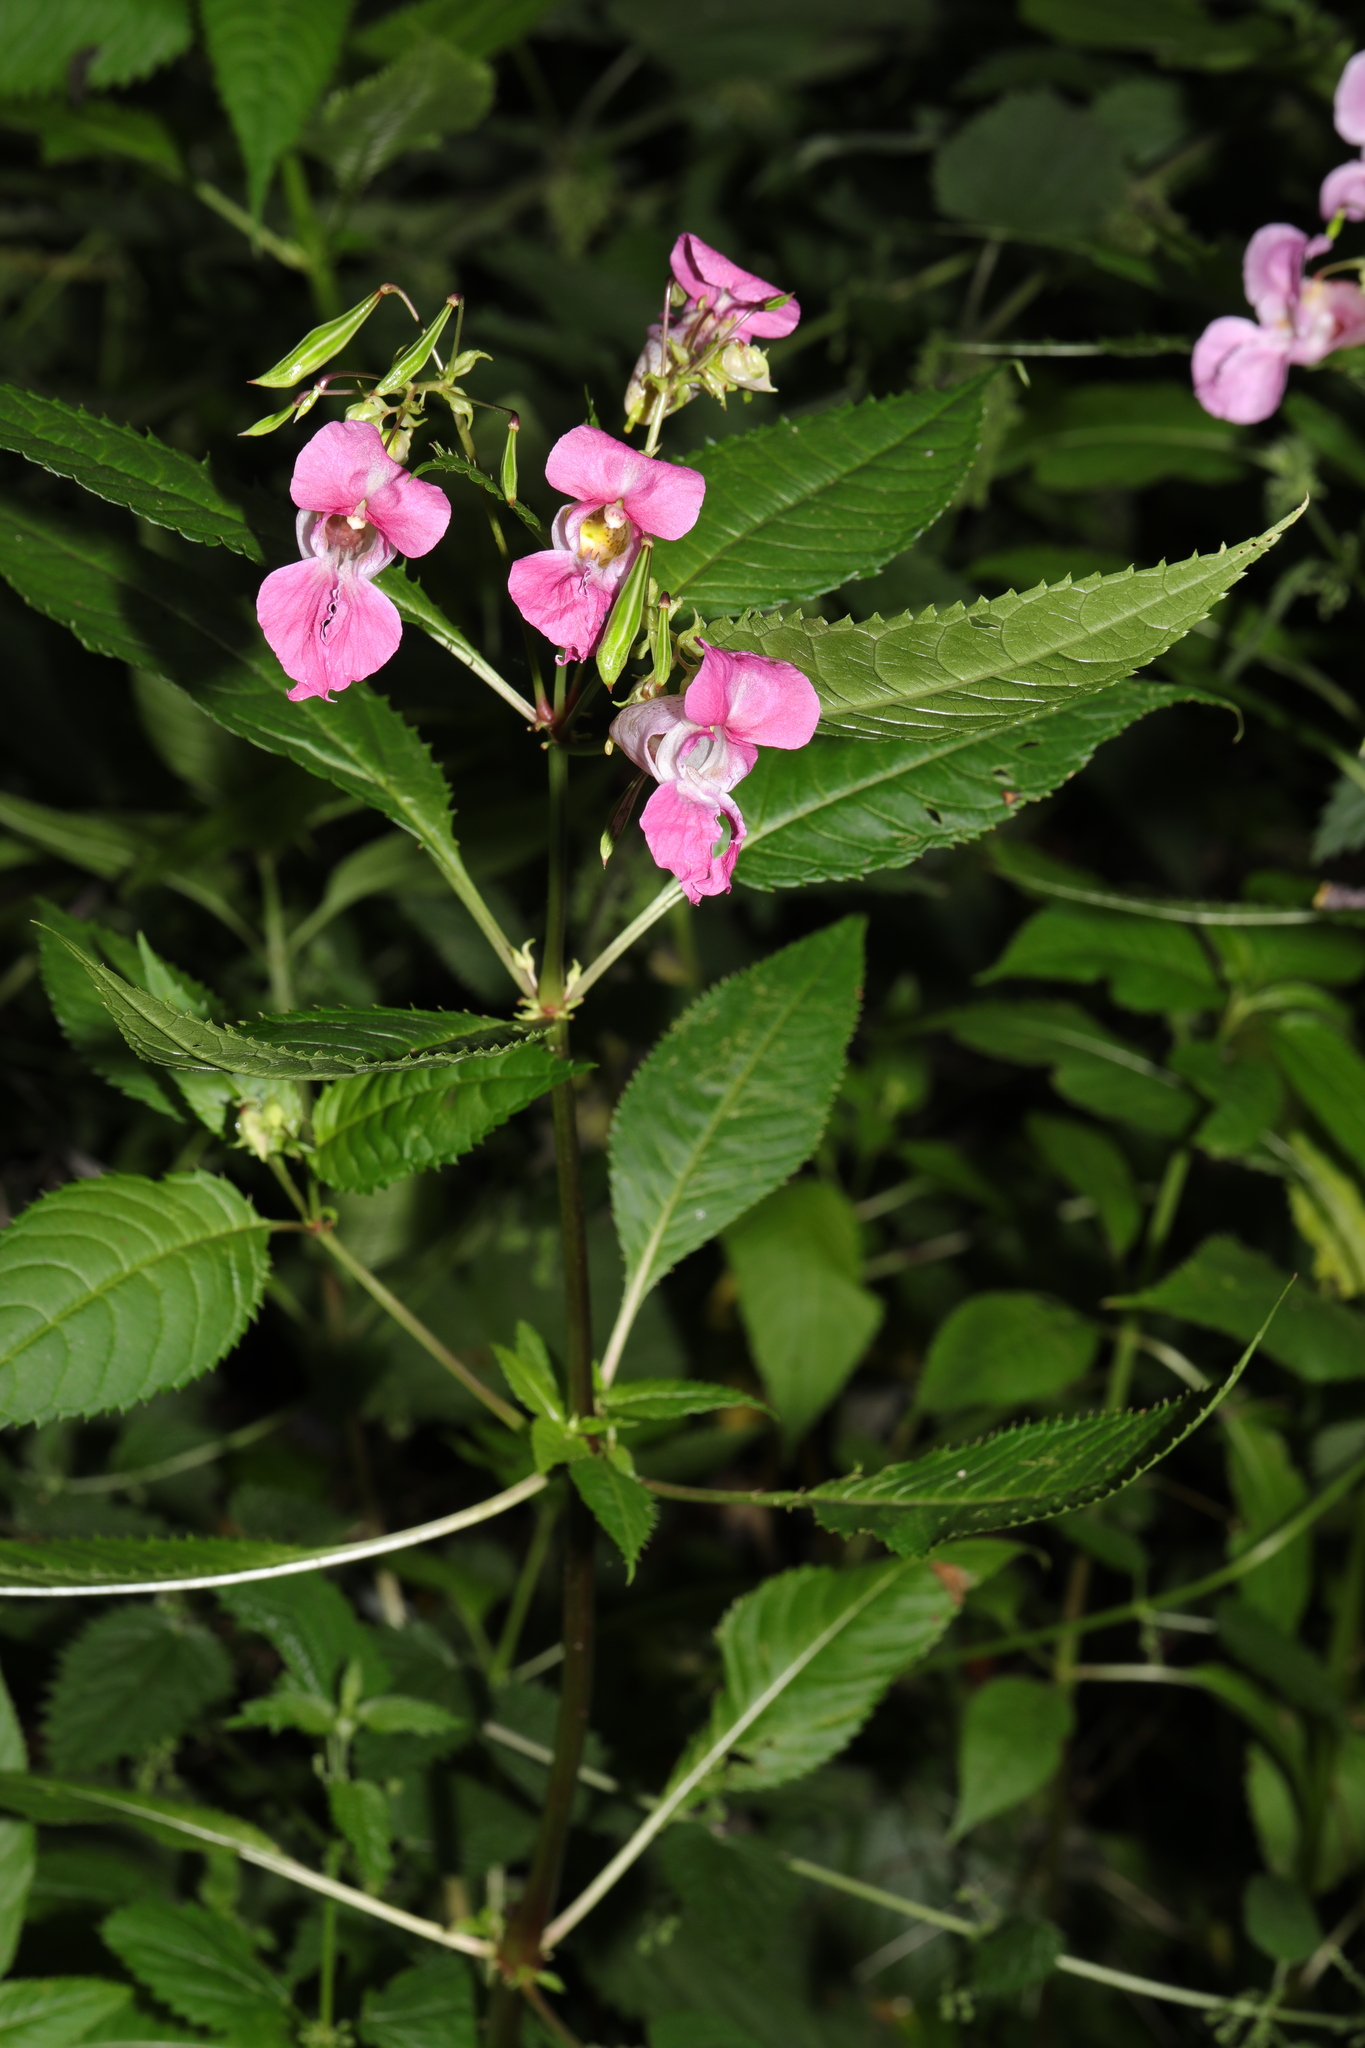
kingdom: Plantae
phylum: Tracheophyta
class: Magnoliopsida
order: Ericales
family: Balsaminaceae
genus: Impatiens
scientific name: Impatiens glandulifera
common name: Himalayan balsam
